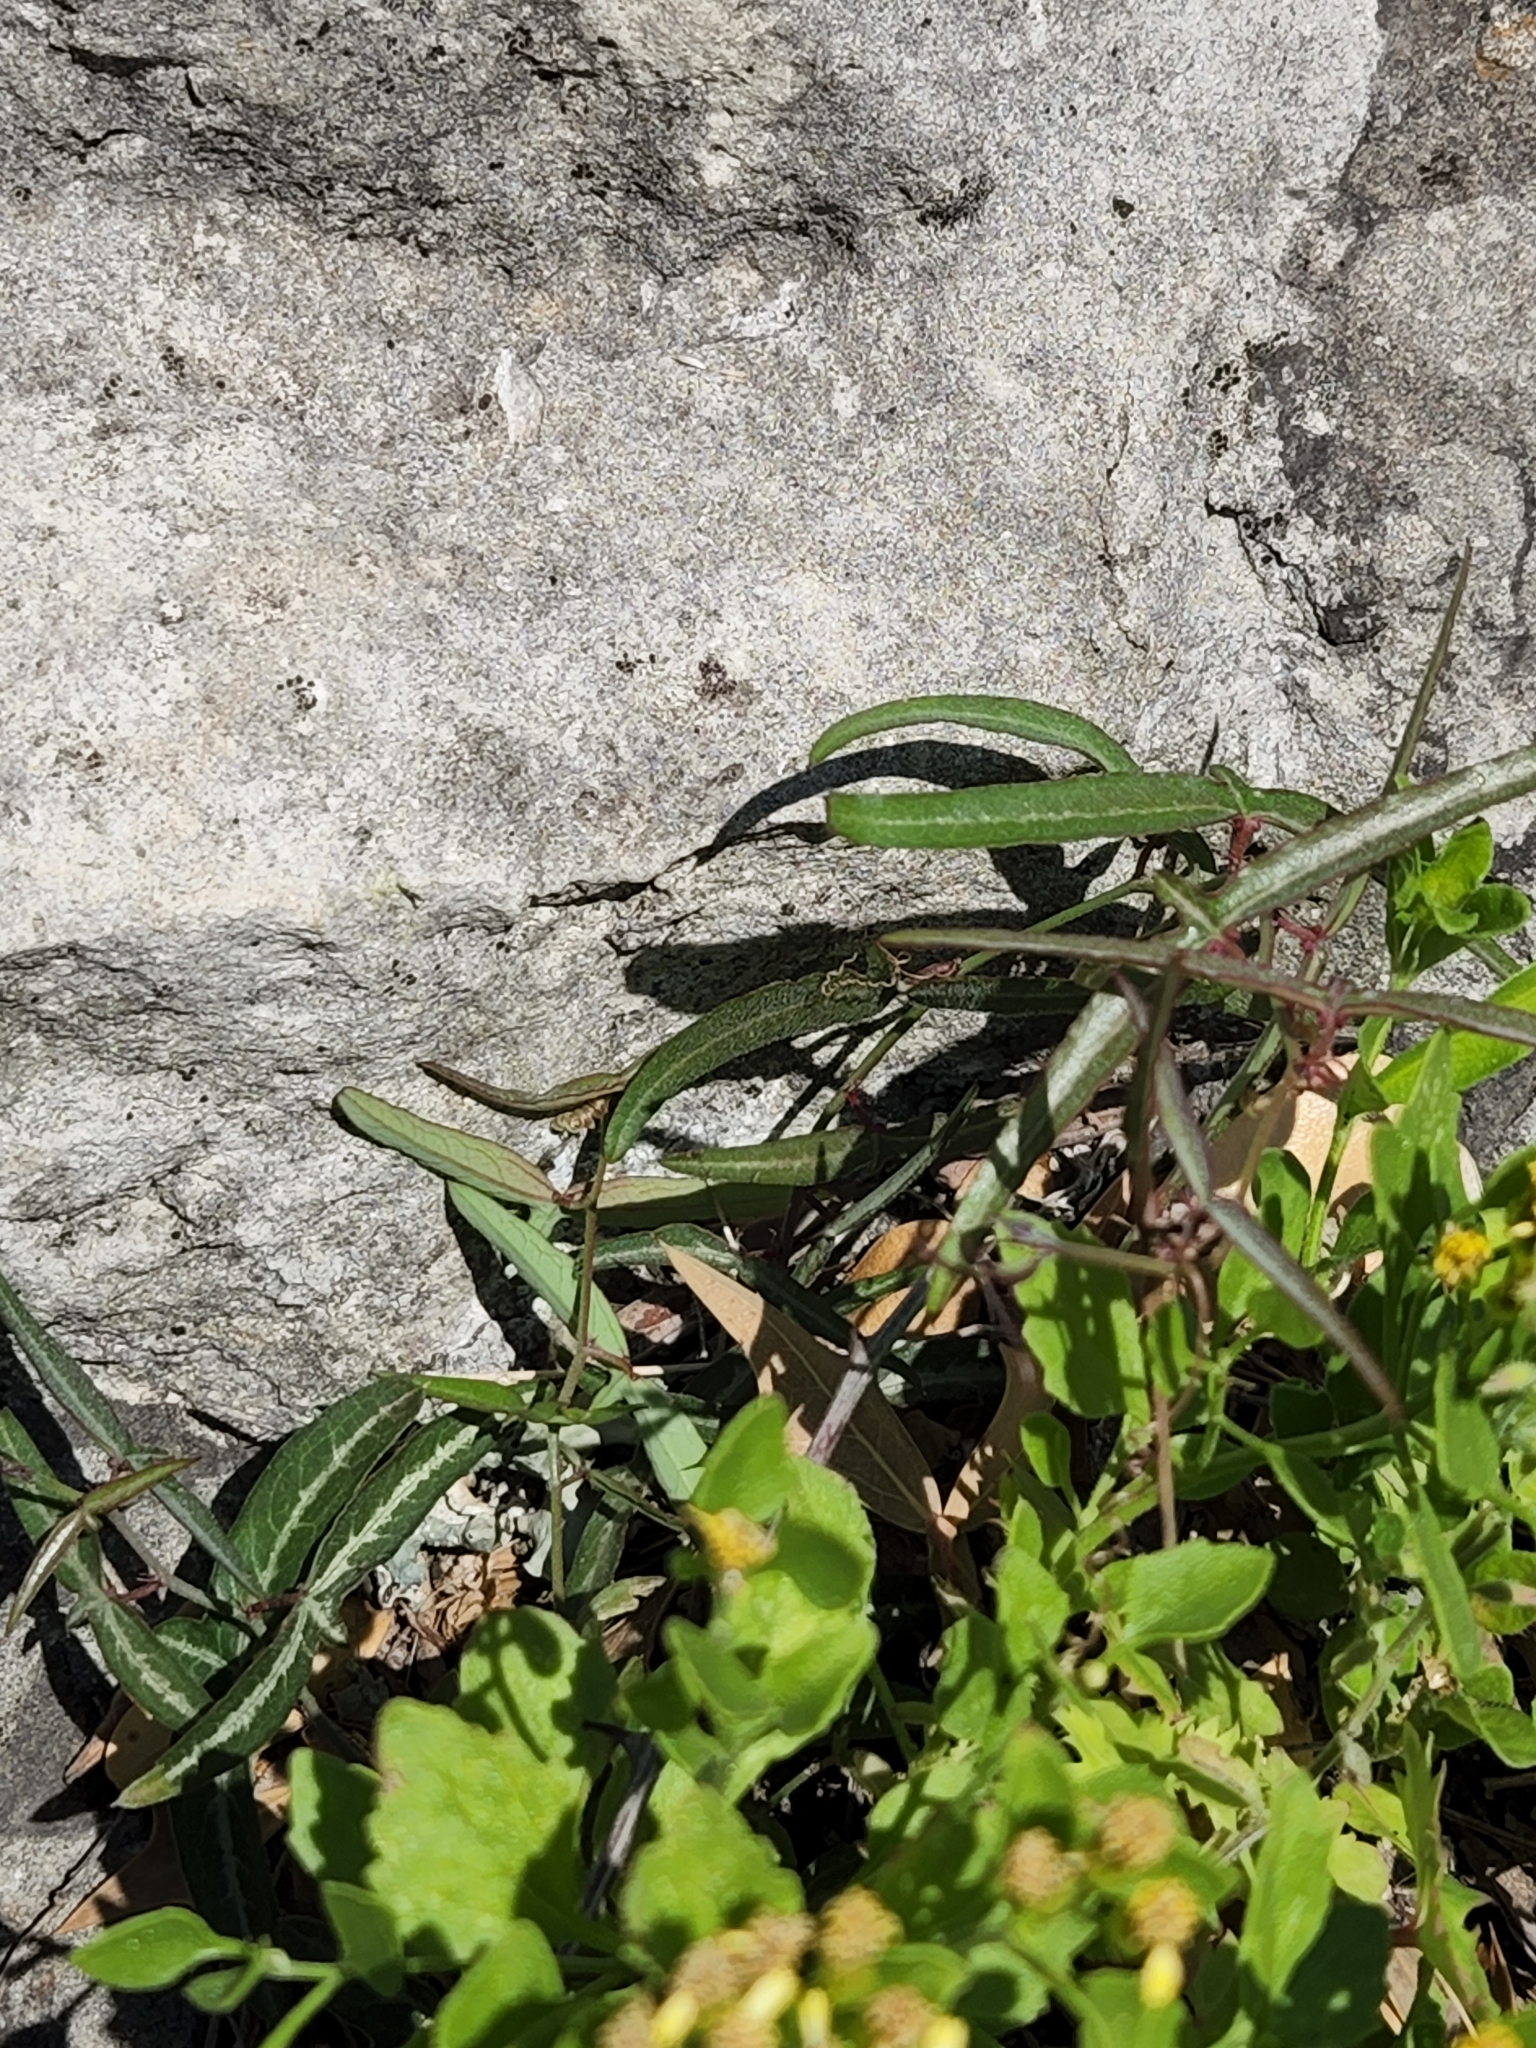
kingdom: Plantae
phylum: Tracheophyta
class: Magnoliopsida
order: Malpighiales
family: Passifloraceae
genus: Passiflora
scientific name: Passiflora tenuiloba
